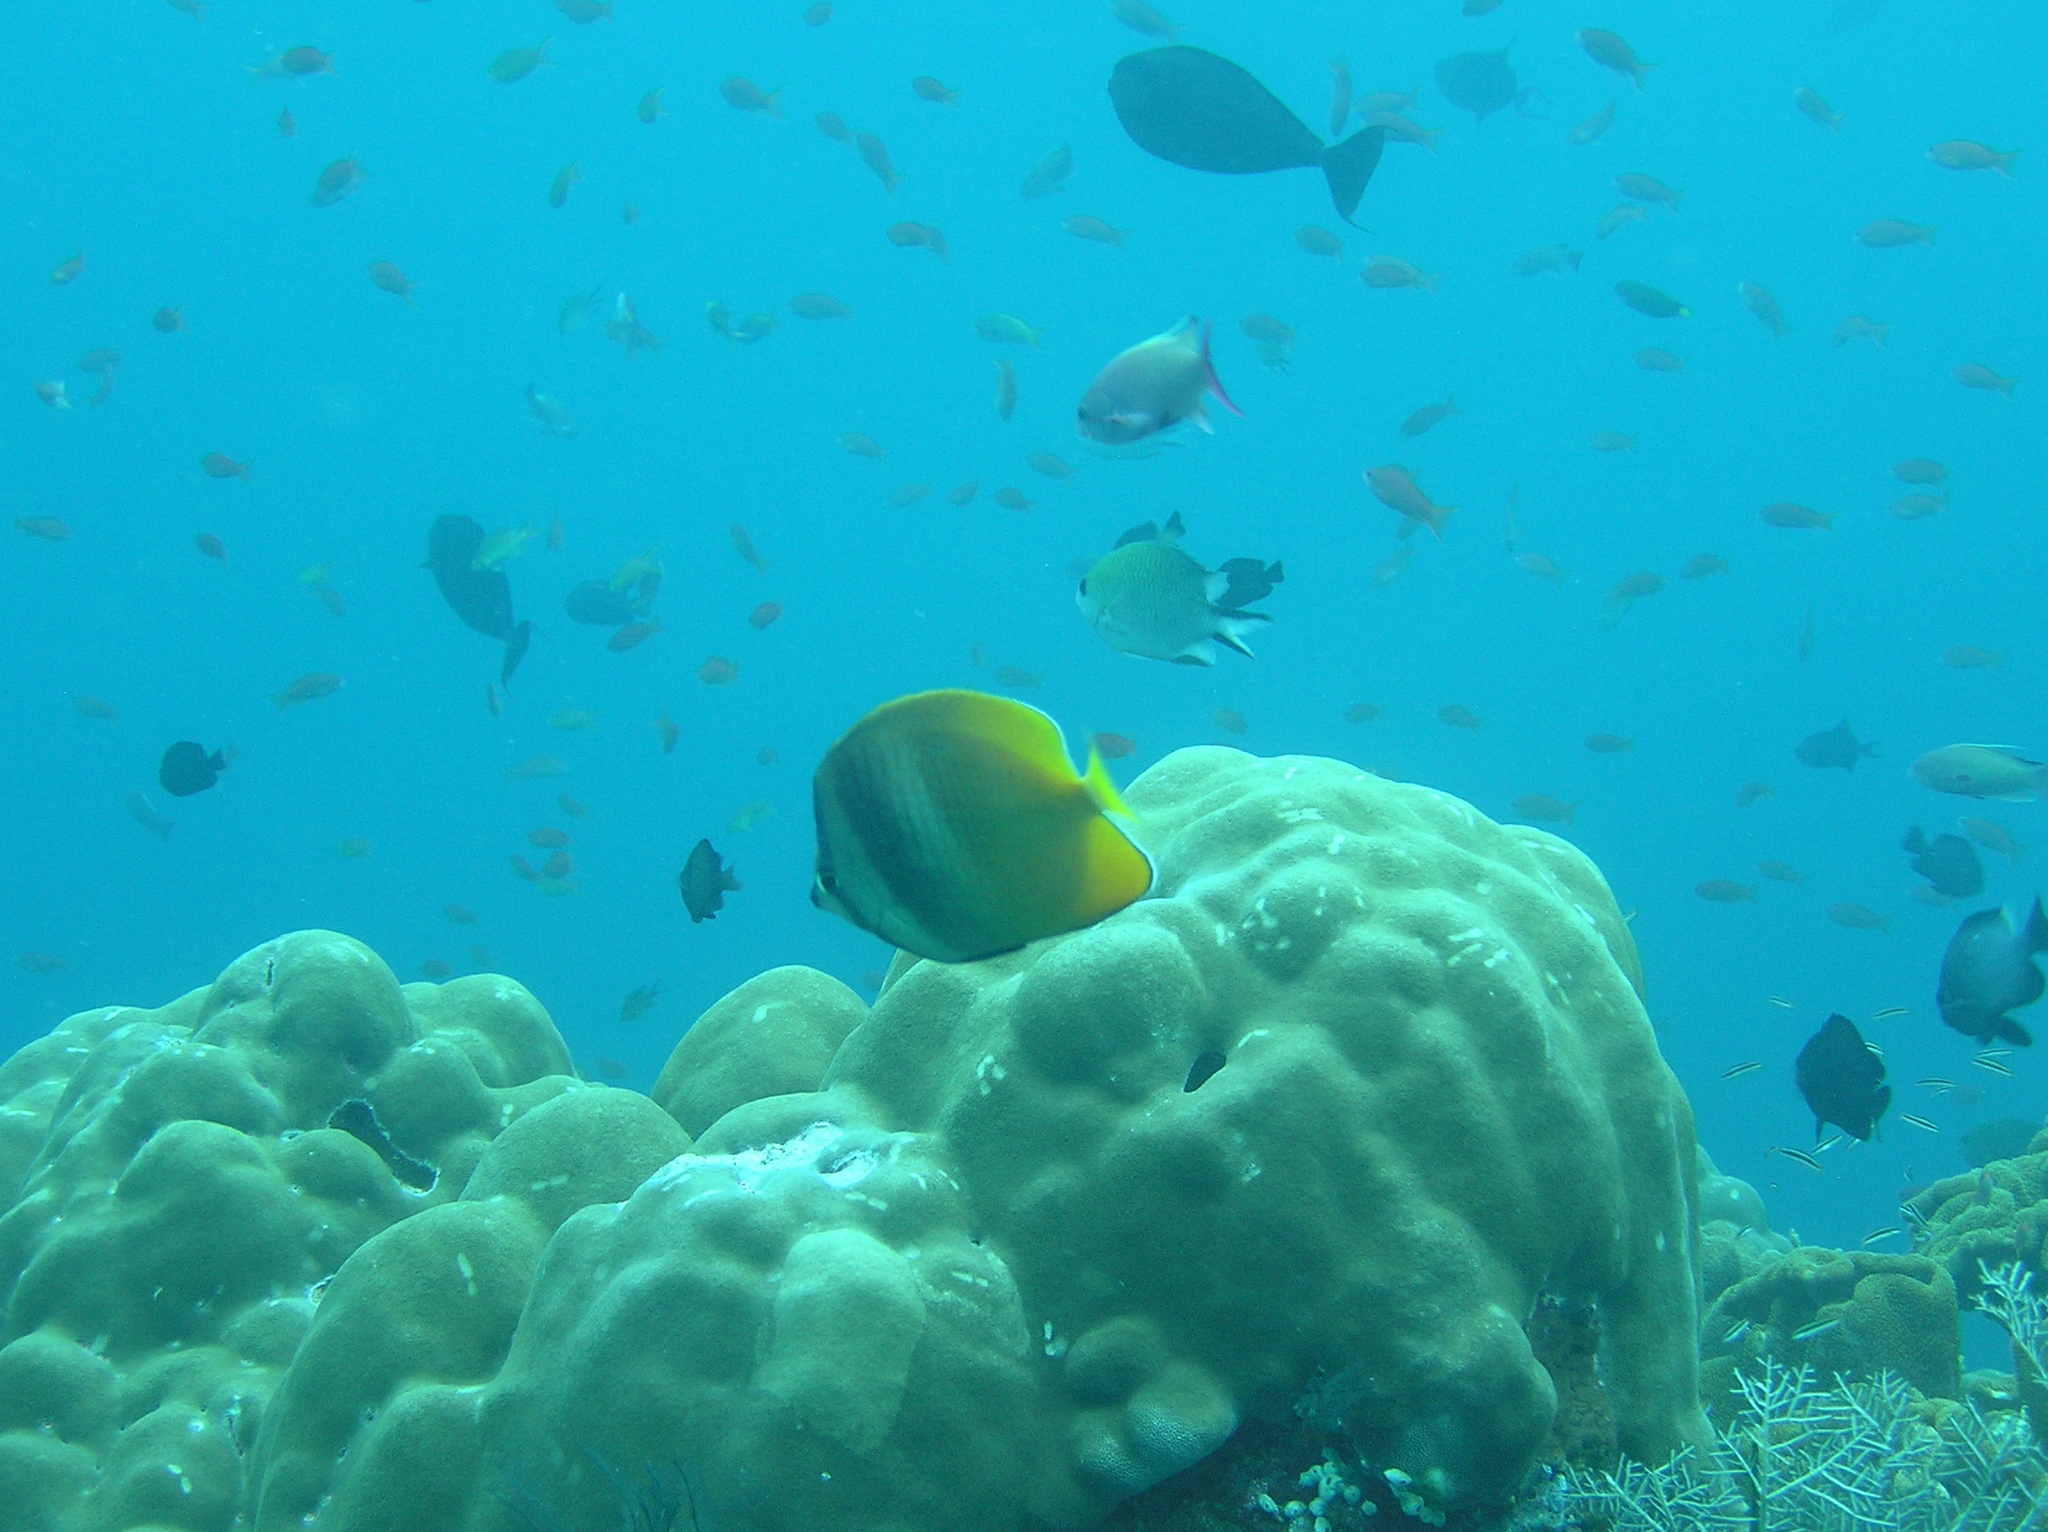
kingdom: Animalia
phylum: Chordata
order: Perciformes
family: Chaetodontidae
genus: Chaetodon
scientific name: Chaetodon kleinii
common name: Klein's butterflyfish
